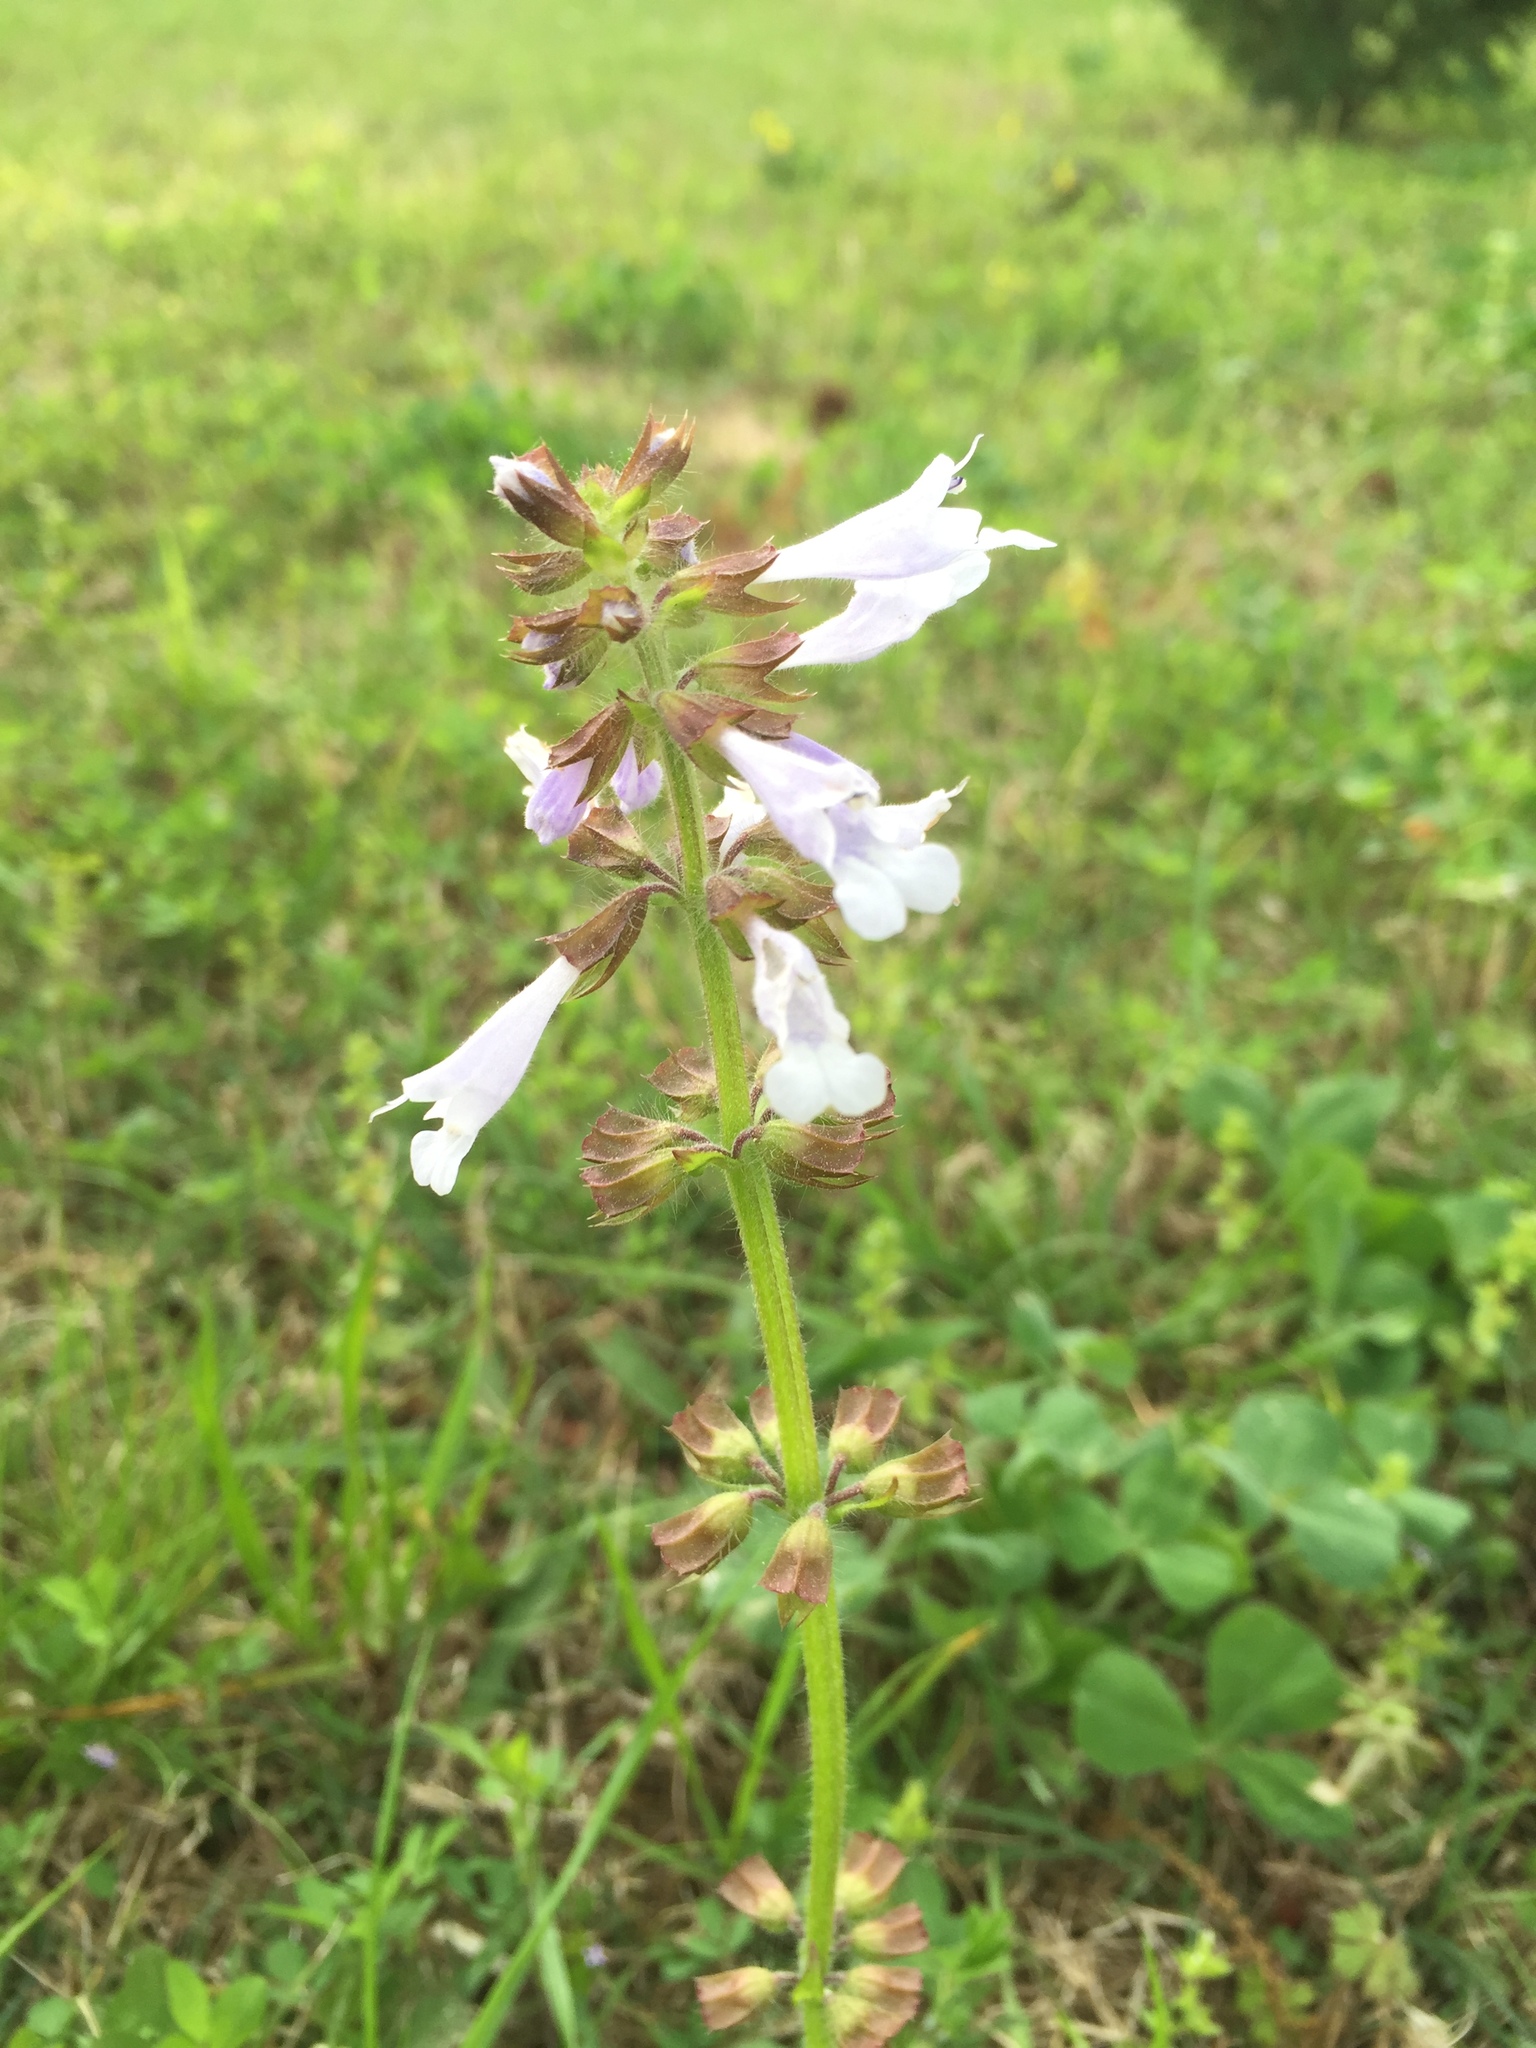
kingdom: Plantae
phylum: Tracheophyta
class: Magnoliopsida
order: Lamiales
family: Lamiaceae
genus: Salvia
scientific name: Salvia lyrata
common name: Cancerweed
